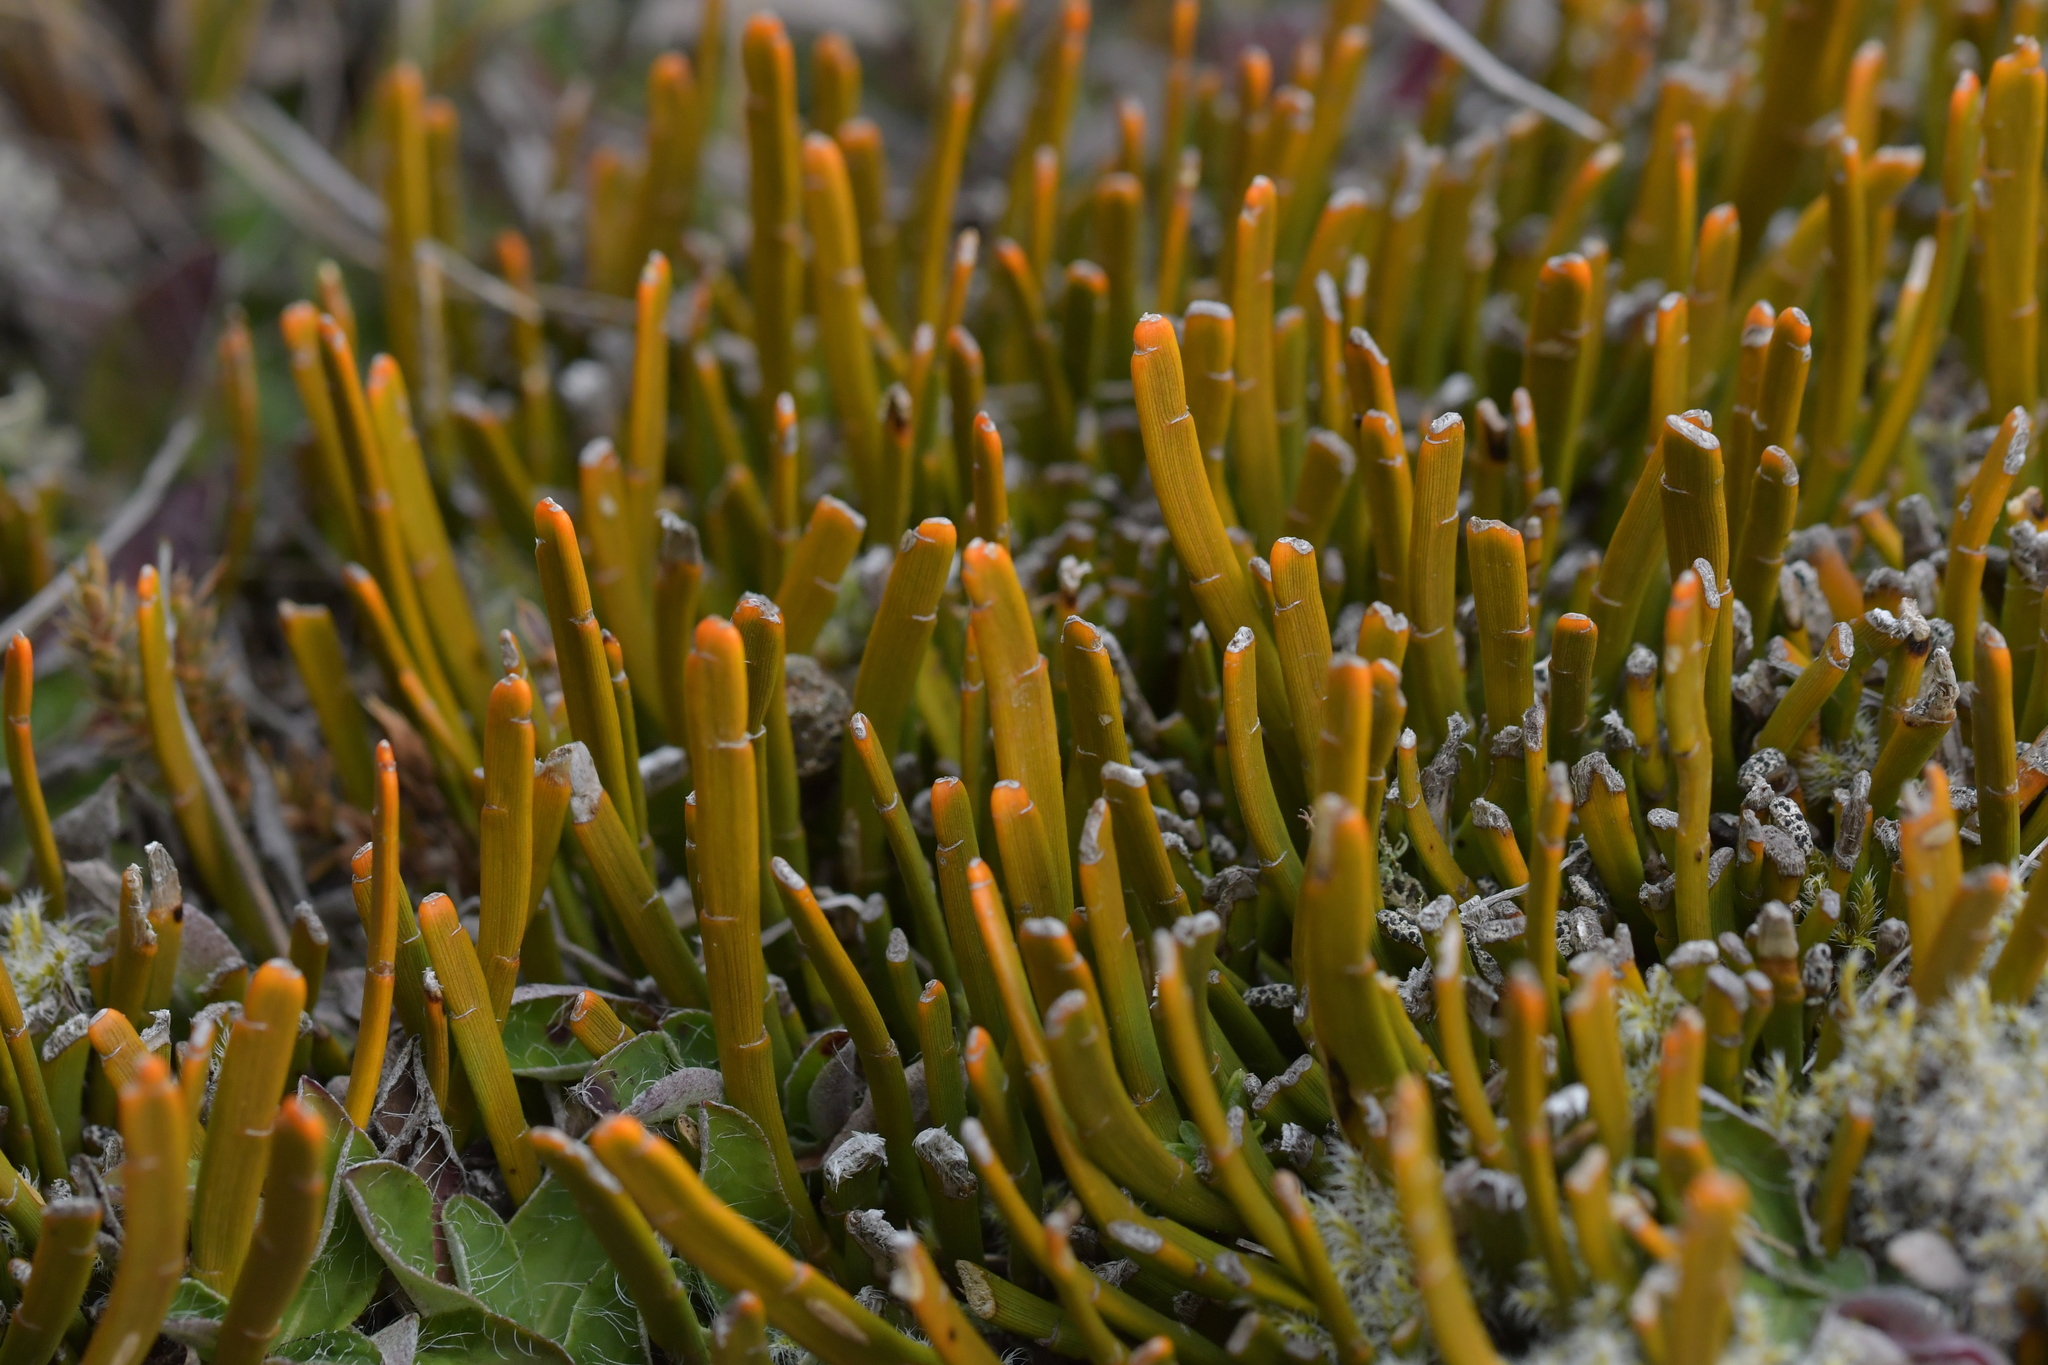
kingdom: Plantae
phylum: Tracheophyta
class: Magnoliopsida
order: Fabales
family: Fabaceae
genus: Carmichaelia
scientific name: Carmichaelia monroi
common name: Stout dwarf broom
